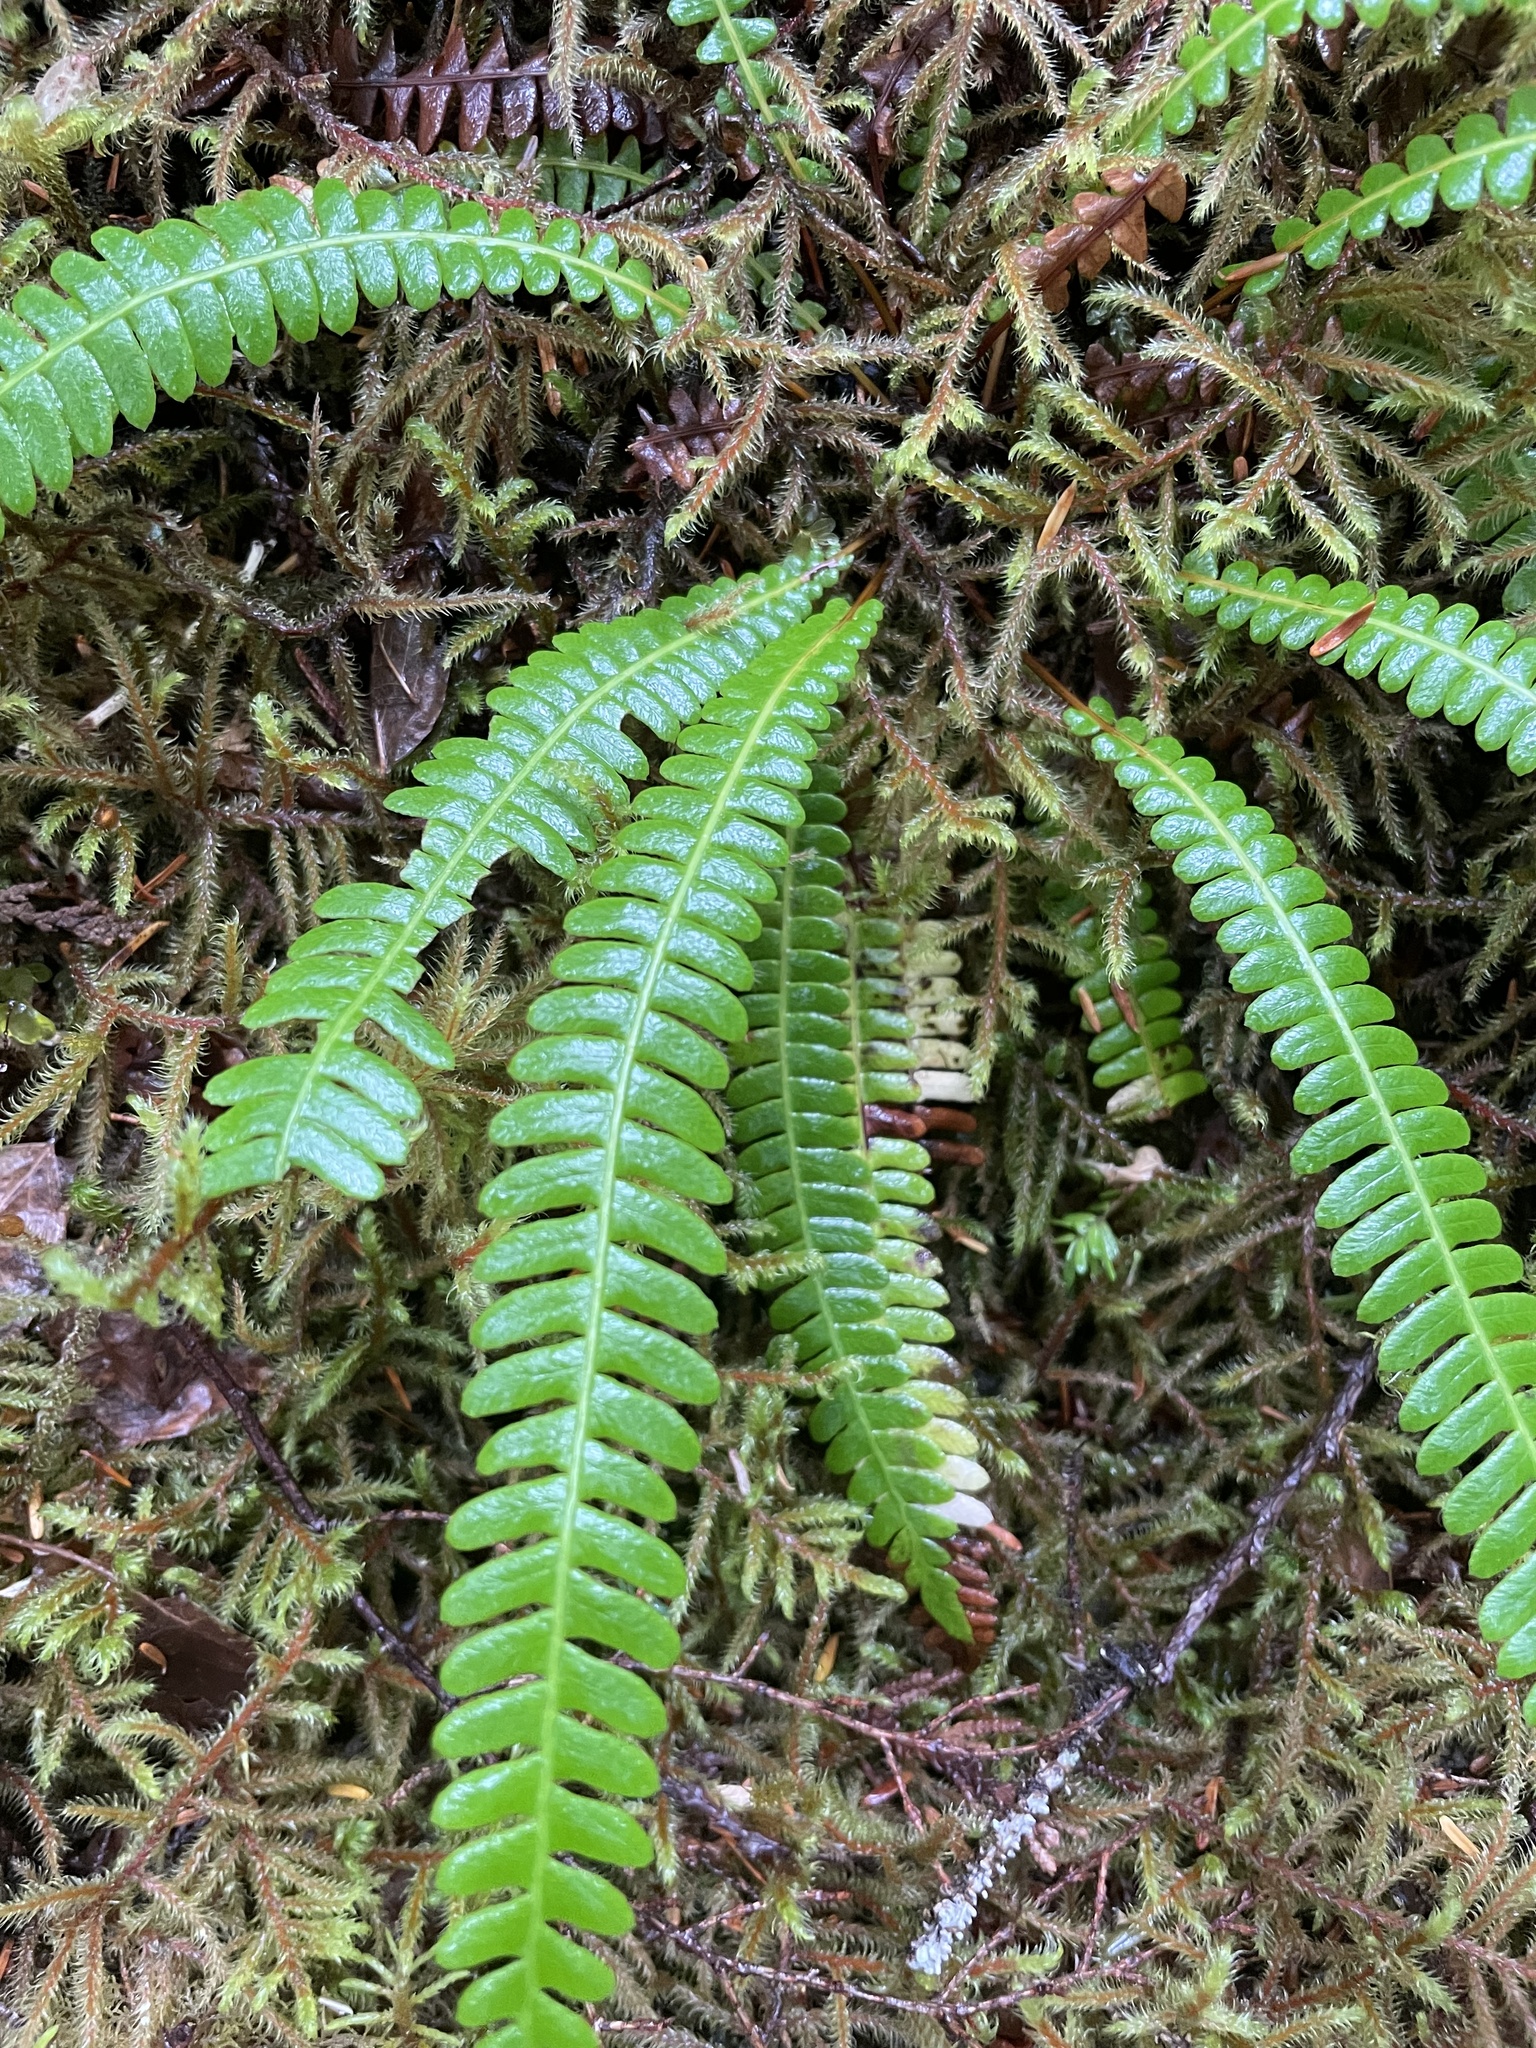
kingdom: Plantae
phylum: Tracheophyta
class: Polypodiopsida
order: Polypodiales
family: Blechnaceae
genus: Struthiopteris
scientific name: Struthiopteris spicant
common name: Deer fern
